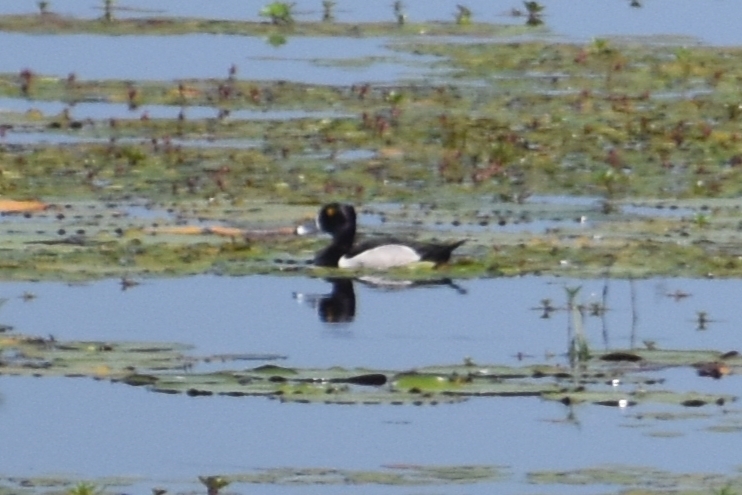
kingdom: Animalia
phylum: Chordata
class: Aves
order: Anseriformes
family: Anatidae
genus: Aythya
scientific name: Aythya collaris
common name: Ring-necked duck
